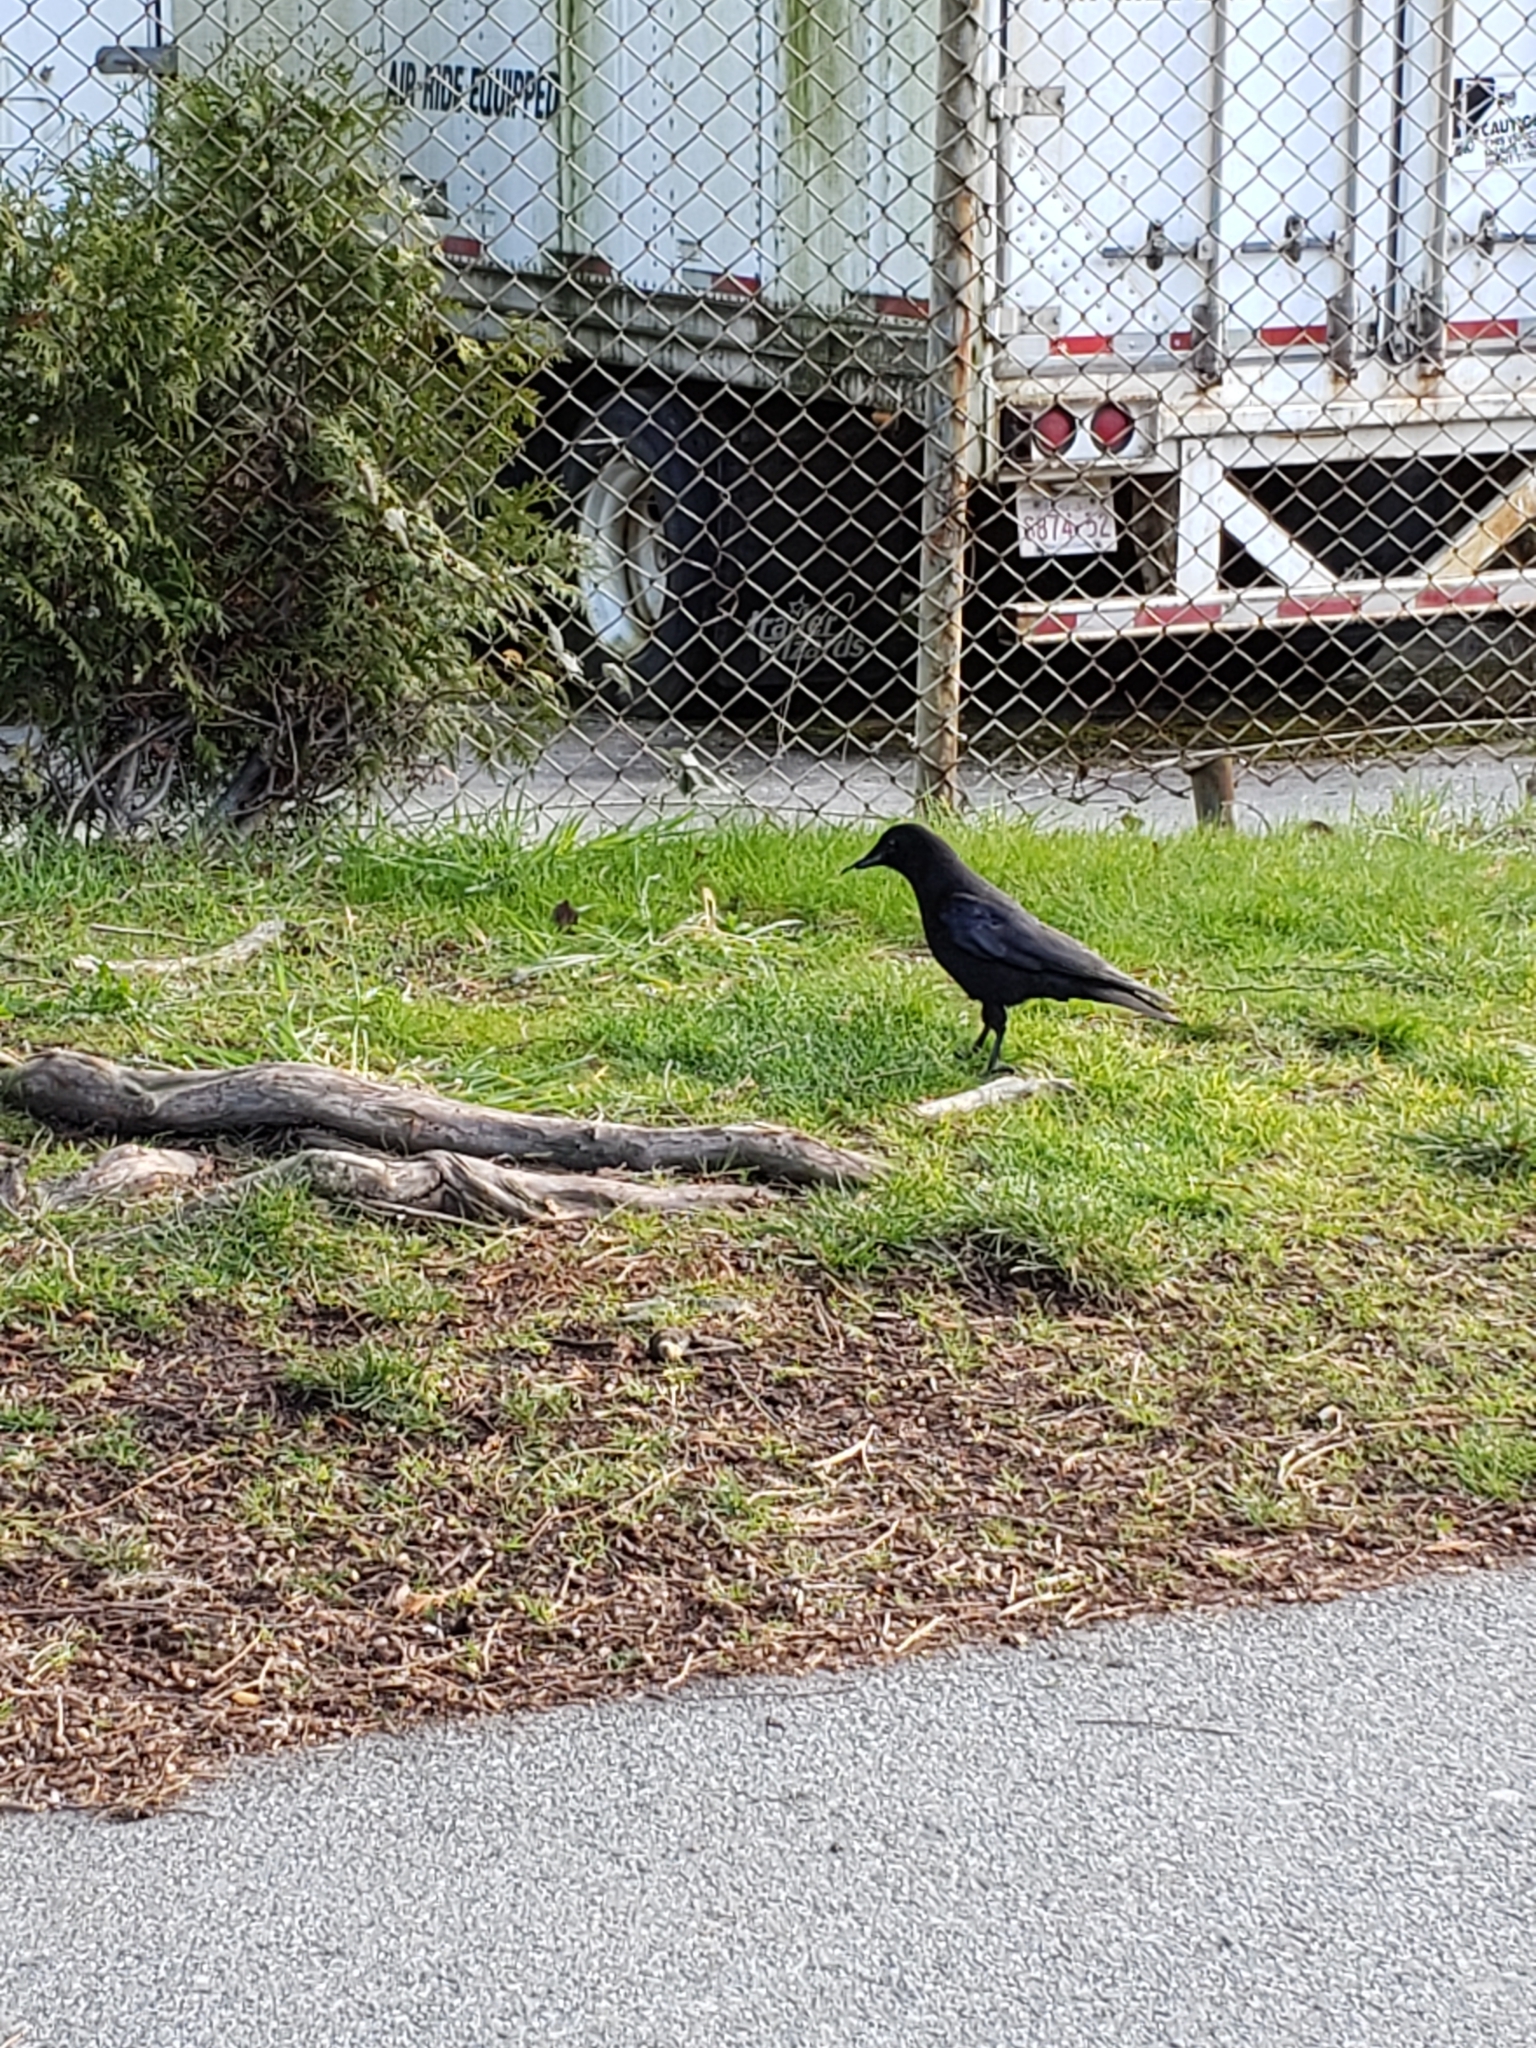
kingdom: Animalia
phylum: Chordata
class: Aves
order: Passeriformes
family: Corvidae
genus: Corvus
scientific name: Corvus brachyrhynchos
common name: American crow
